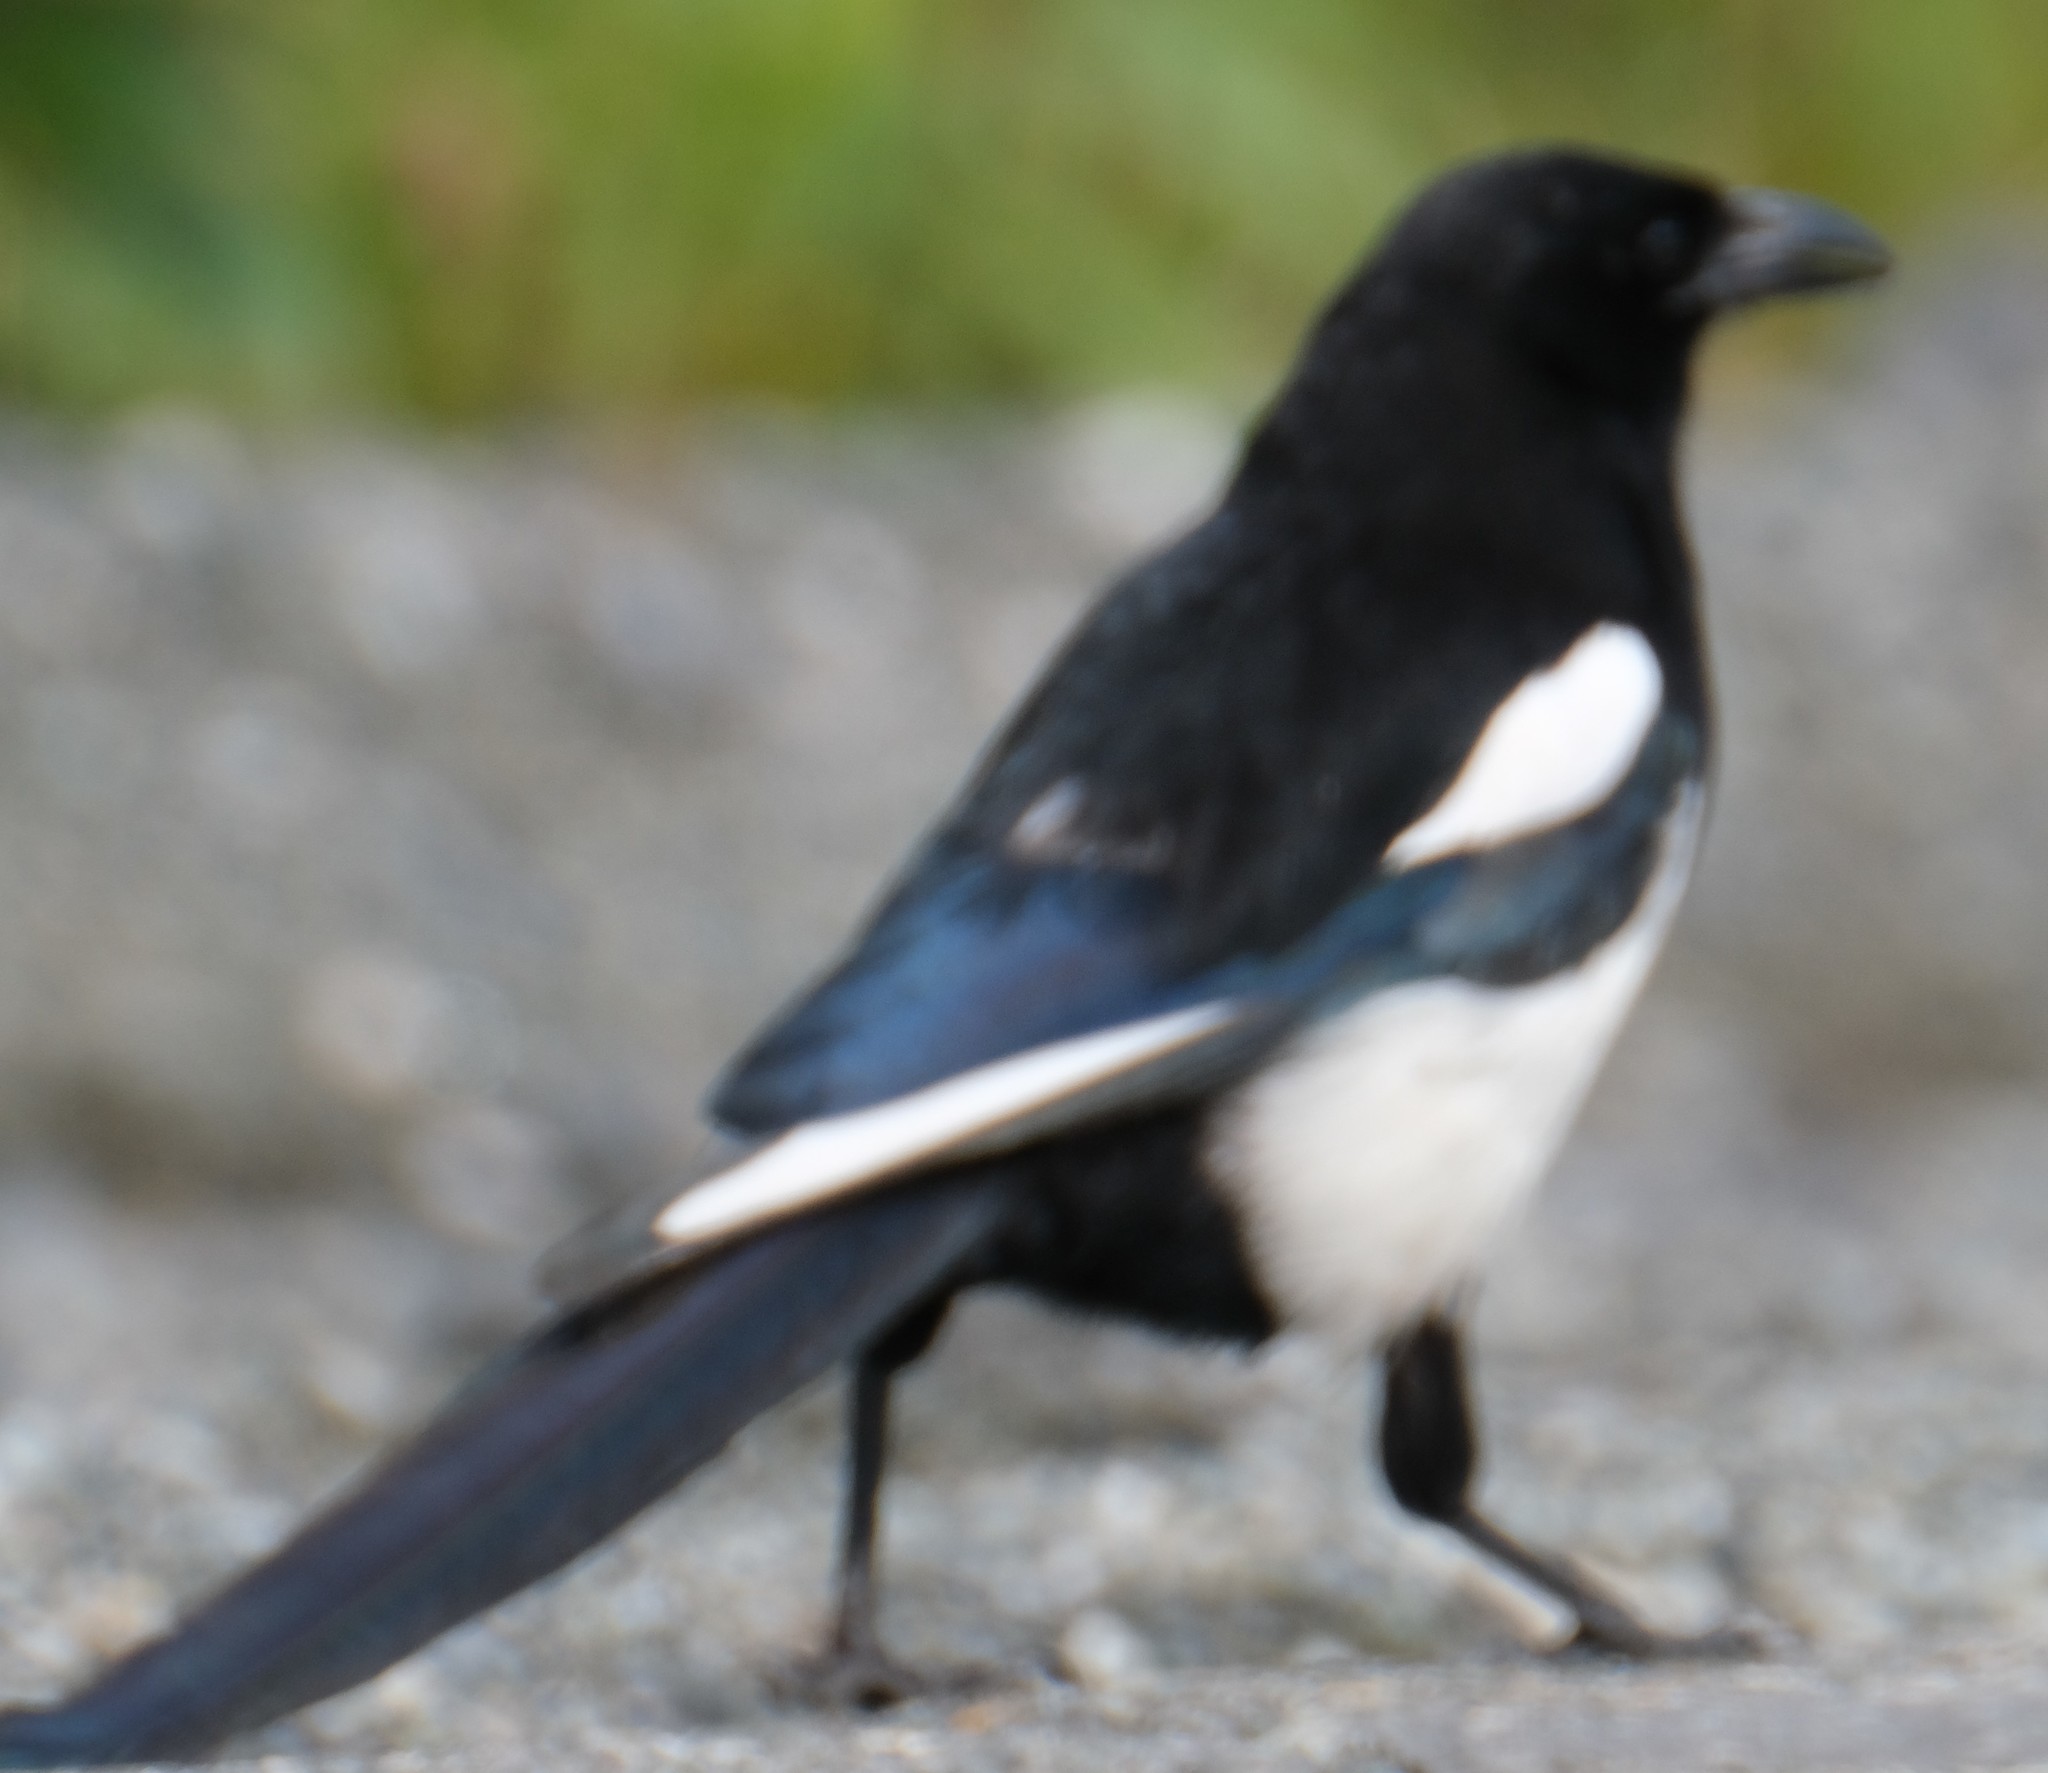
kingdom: Animalia
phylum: Chordata
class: Aves
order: Passeriformes
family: Corvidae
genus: Pica
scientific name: Pica hudsonia
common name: Black-billed magpie
